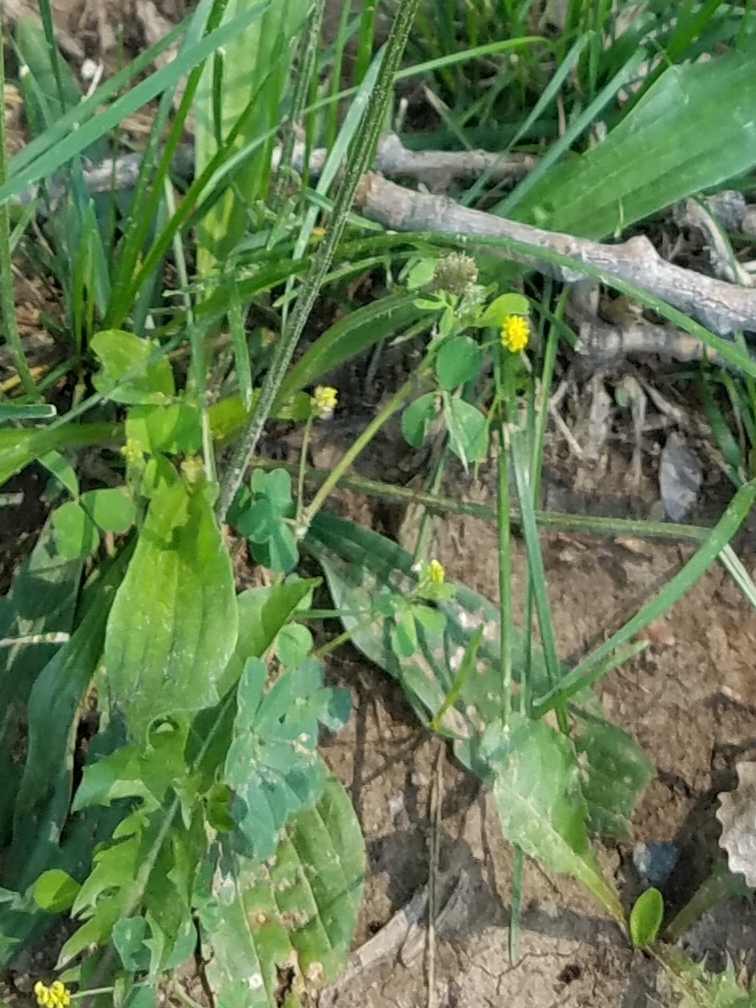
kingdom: Plantae
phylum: Tracheophyta
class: Magnoliopsida
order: Fabales
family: Fabaceae
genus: Medicago
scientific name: Medicago lupulina
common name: Black medick
